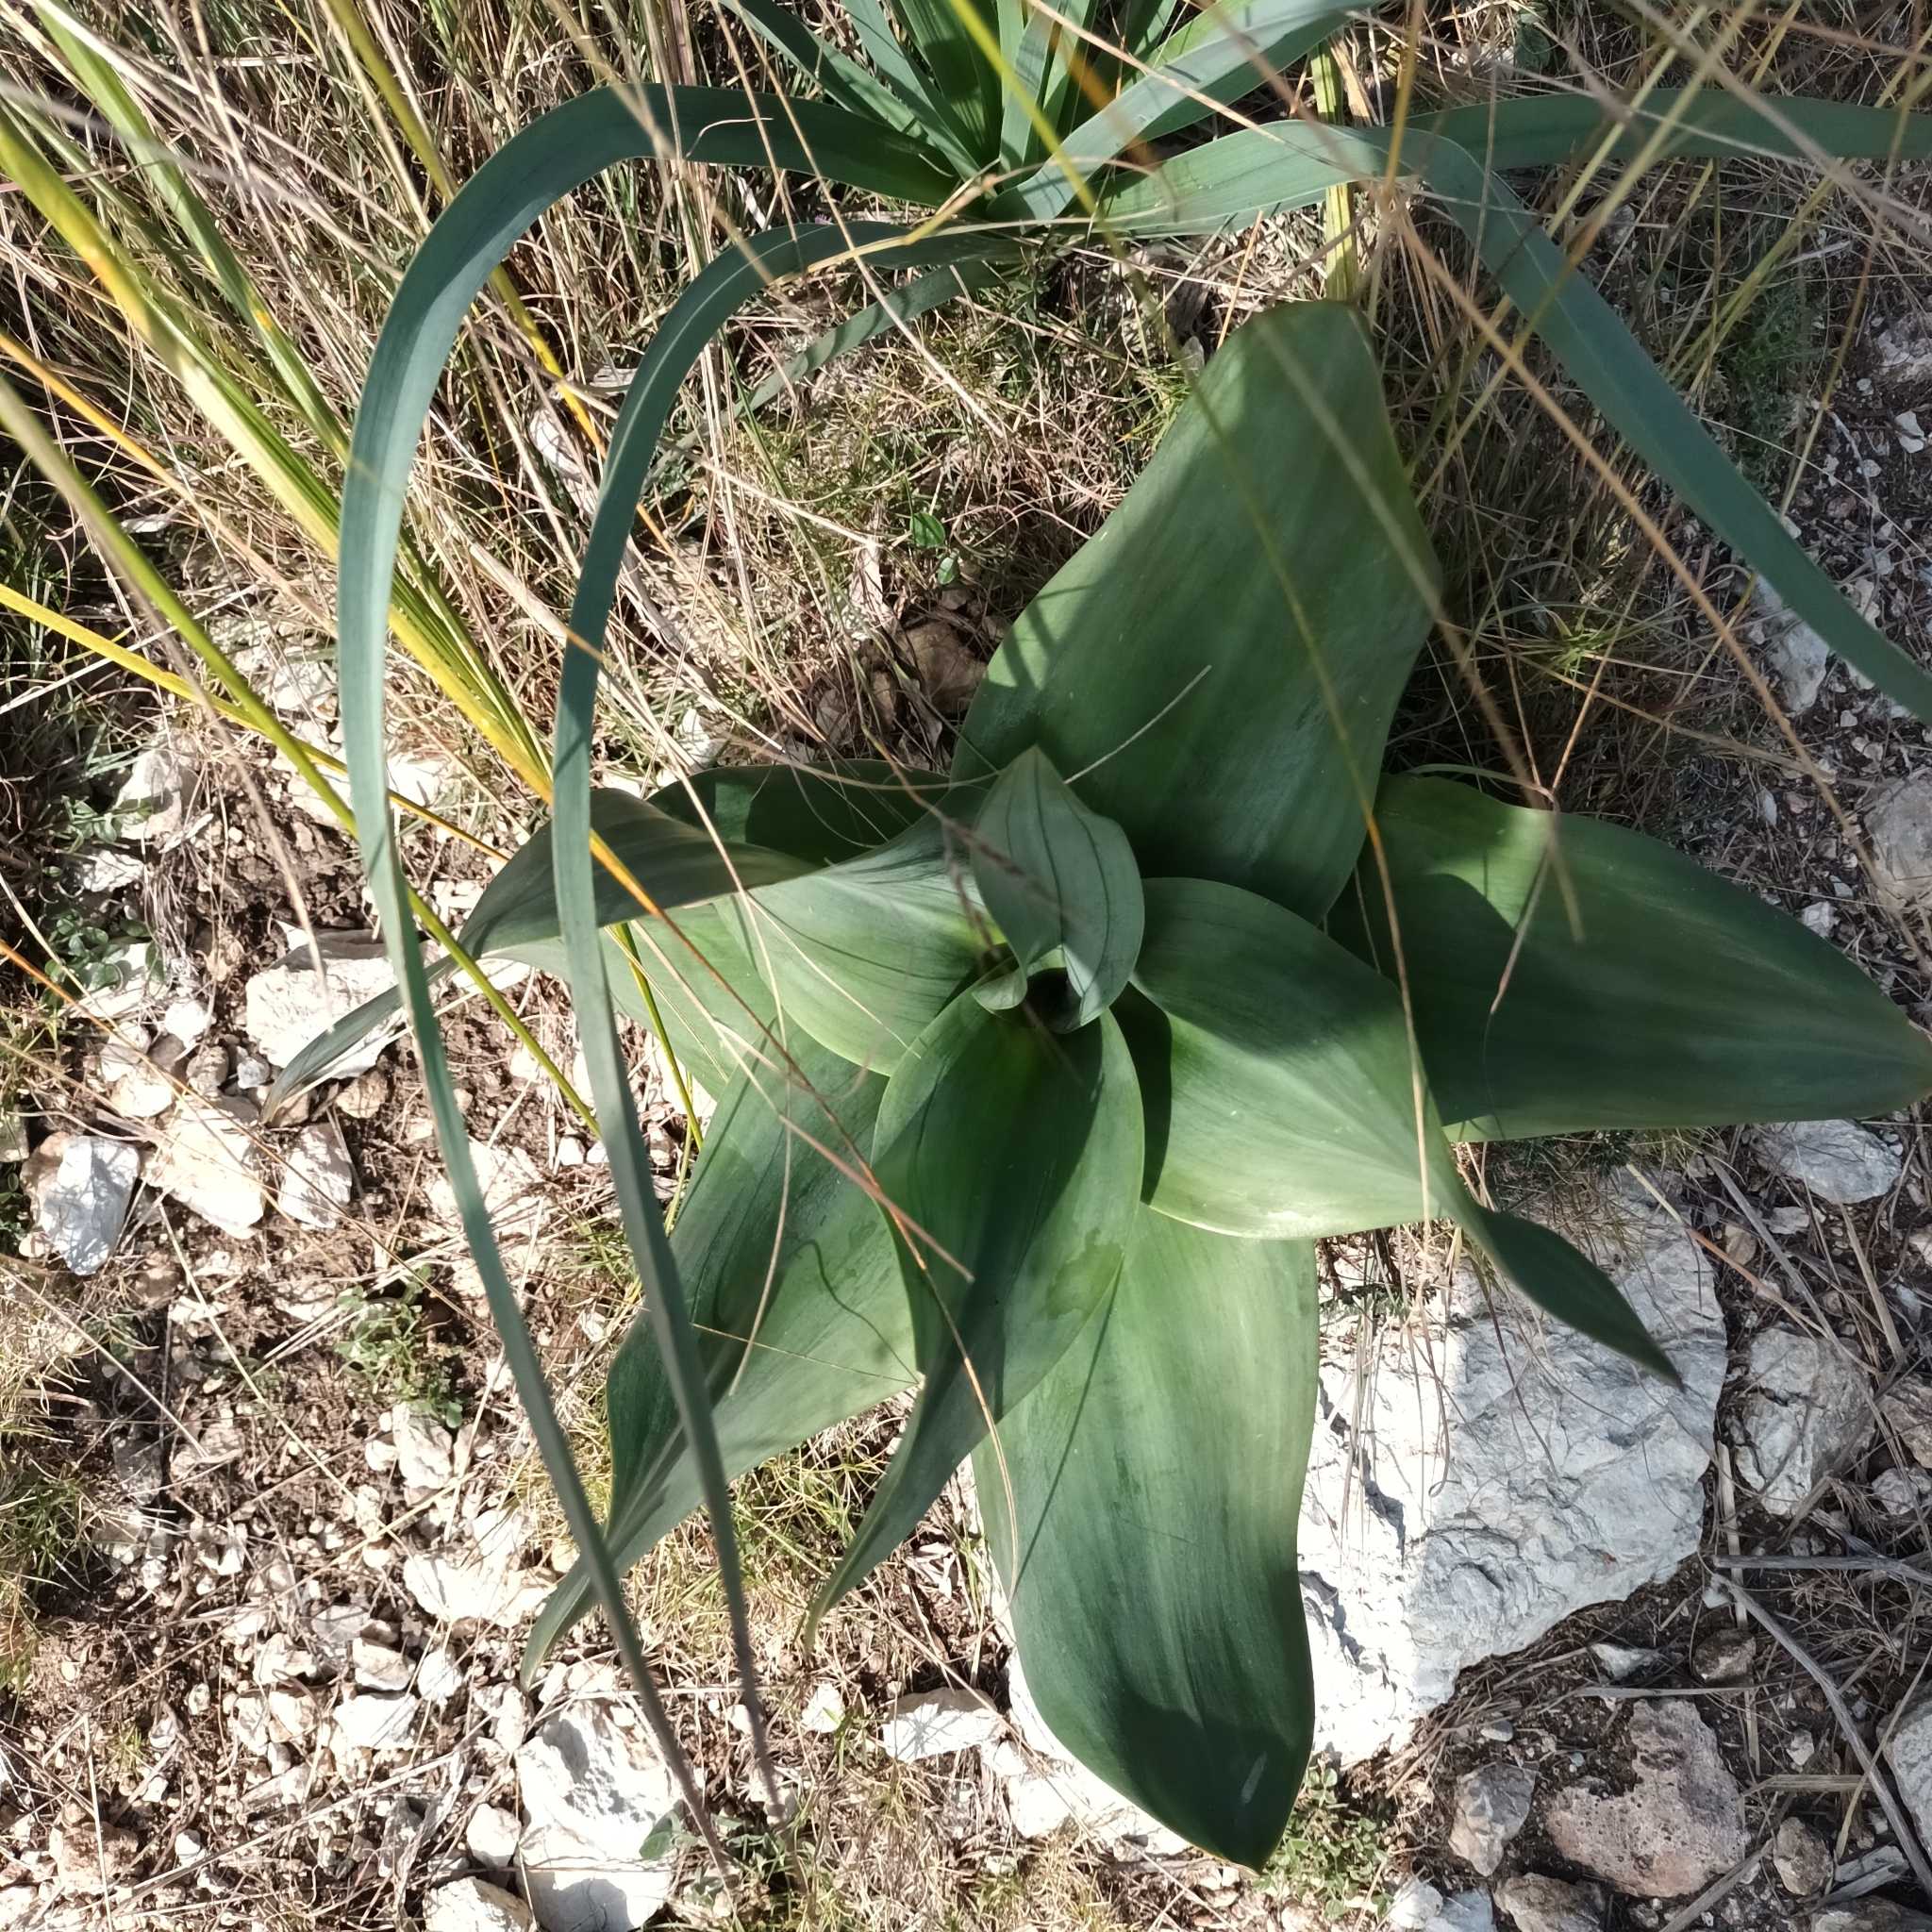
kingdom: Plantae
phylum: Tracheophyta
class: Liliopsida
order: Asparagales
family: Asparagaceae
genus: Drimia
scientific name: Drimia maritima
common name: Maritime squill
